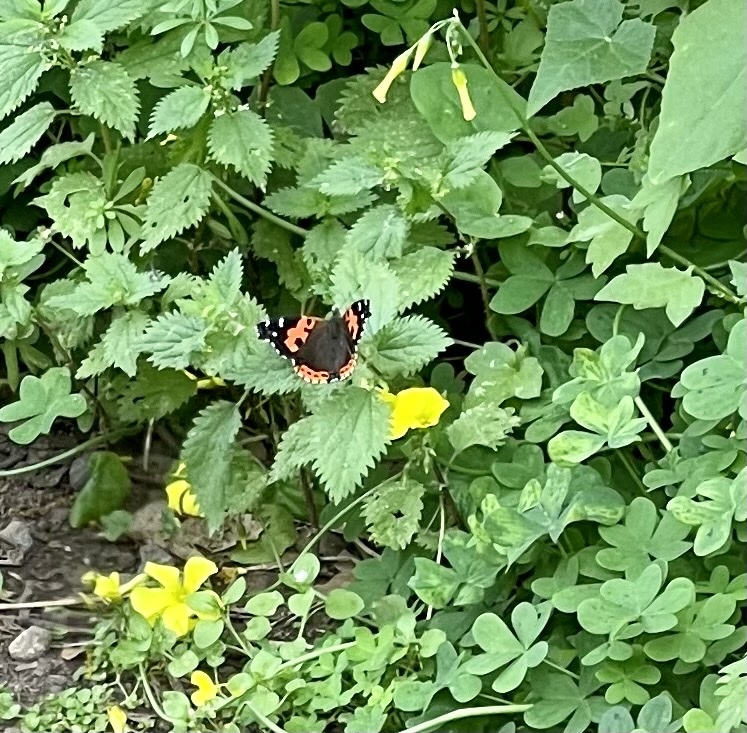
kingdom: Animalia
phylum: Arthropoda
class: Insecta
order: Lepidoptera
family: Nymphalidae
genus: Vanessa
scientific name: Vanessa vulcania
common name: Canary red admiral
